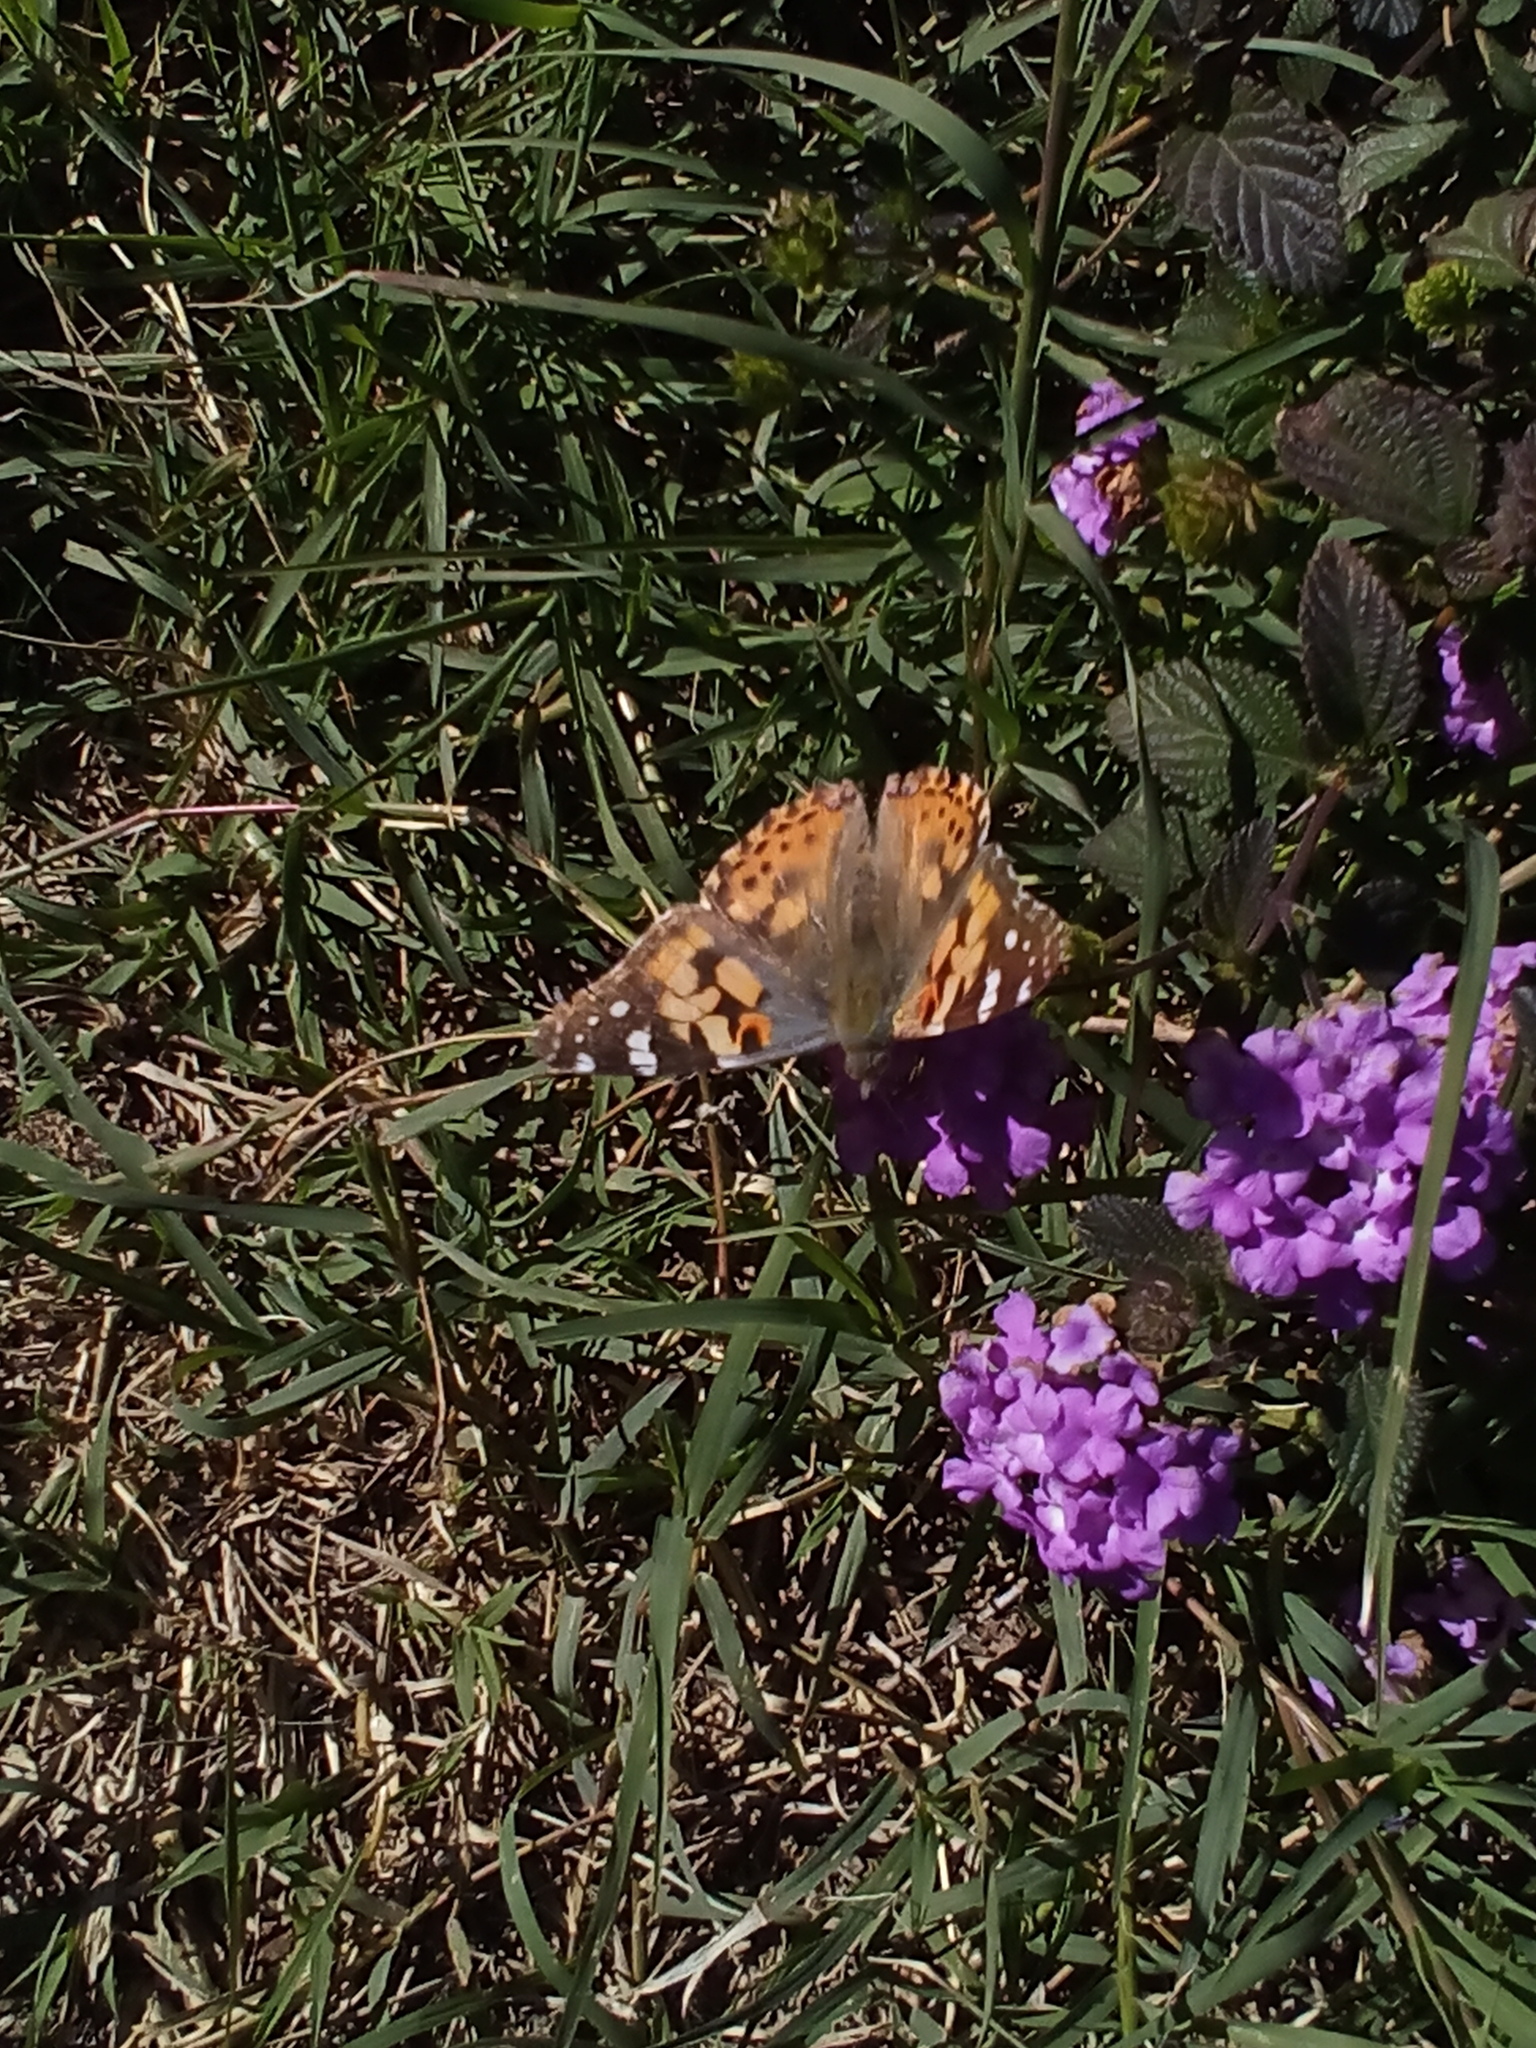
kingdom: Animalia
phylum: Arthropoda
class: Insecta
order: Lepidoptera
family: Nymphalidae
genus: Vanessa
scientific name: Vanessa cardui
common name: Painted lady
